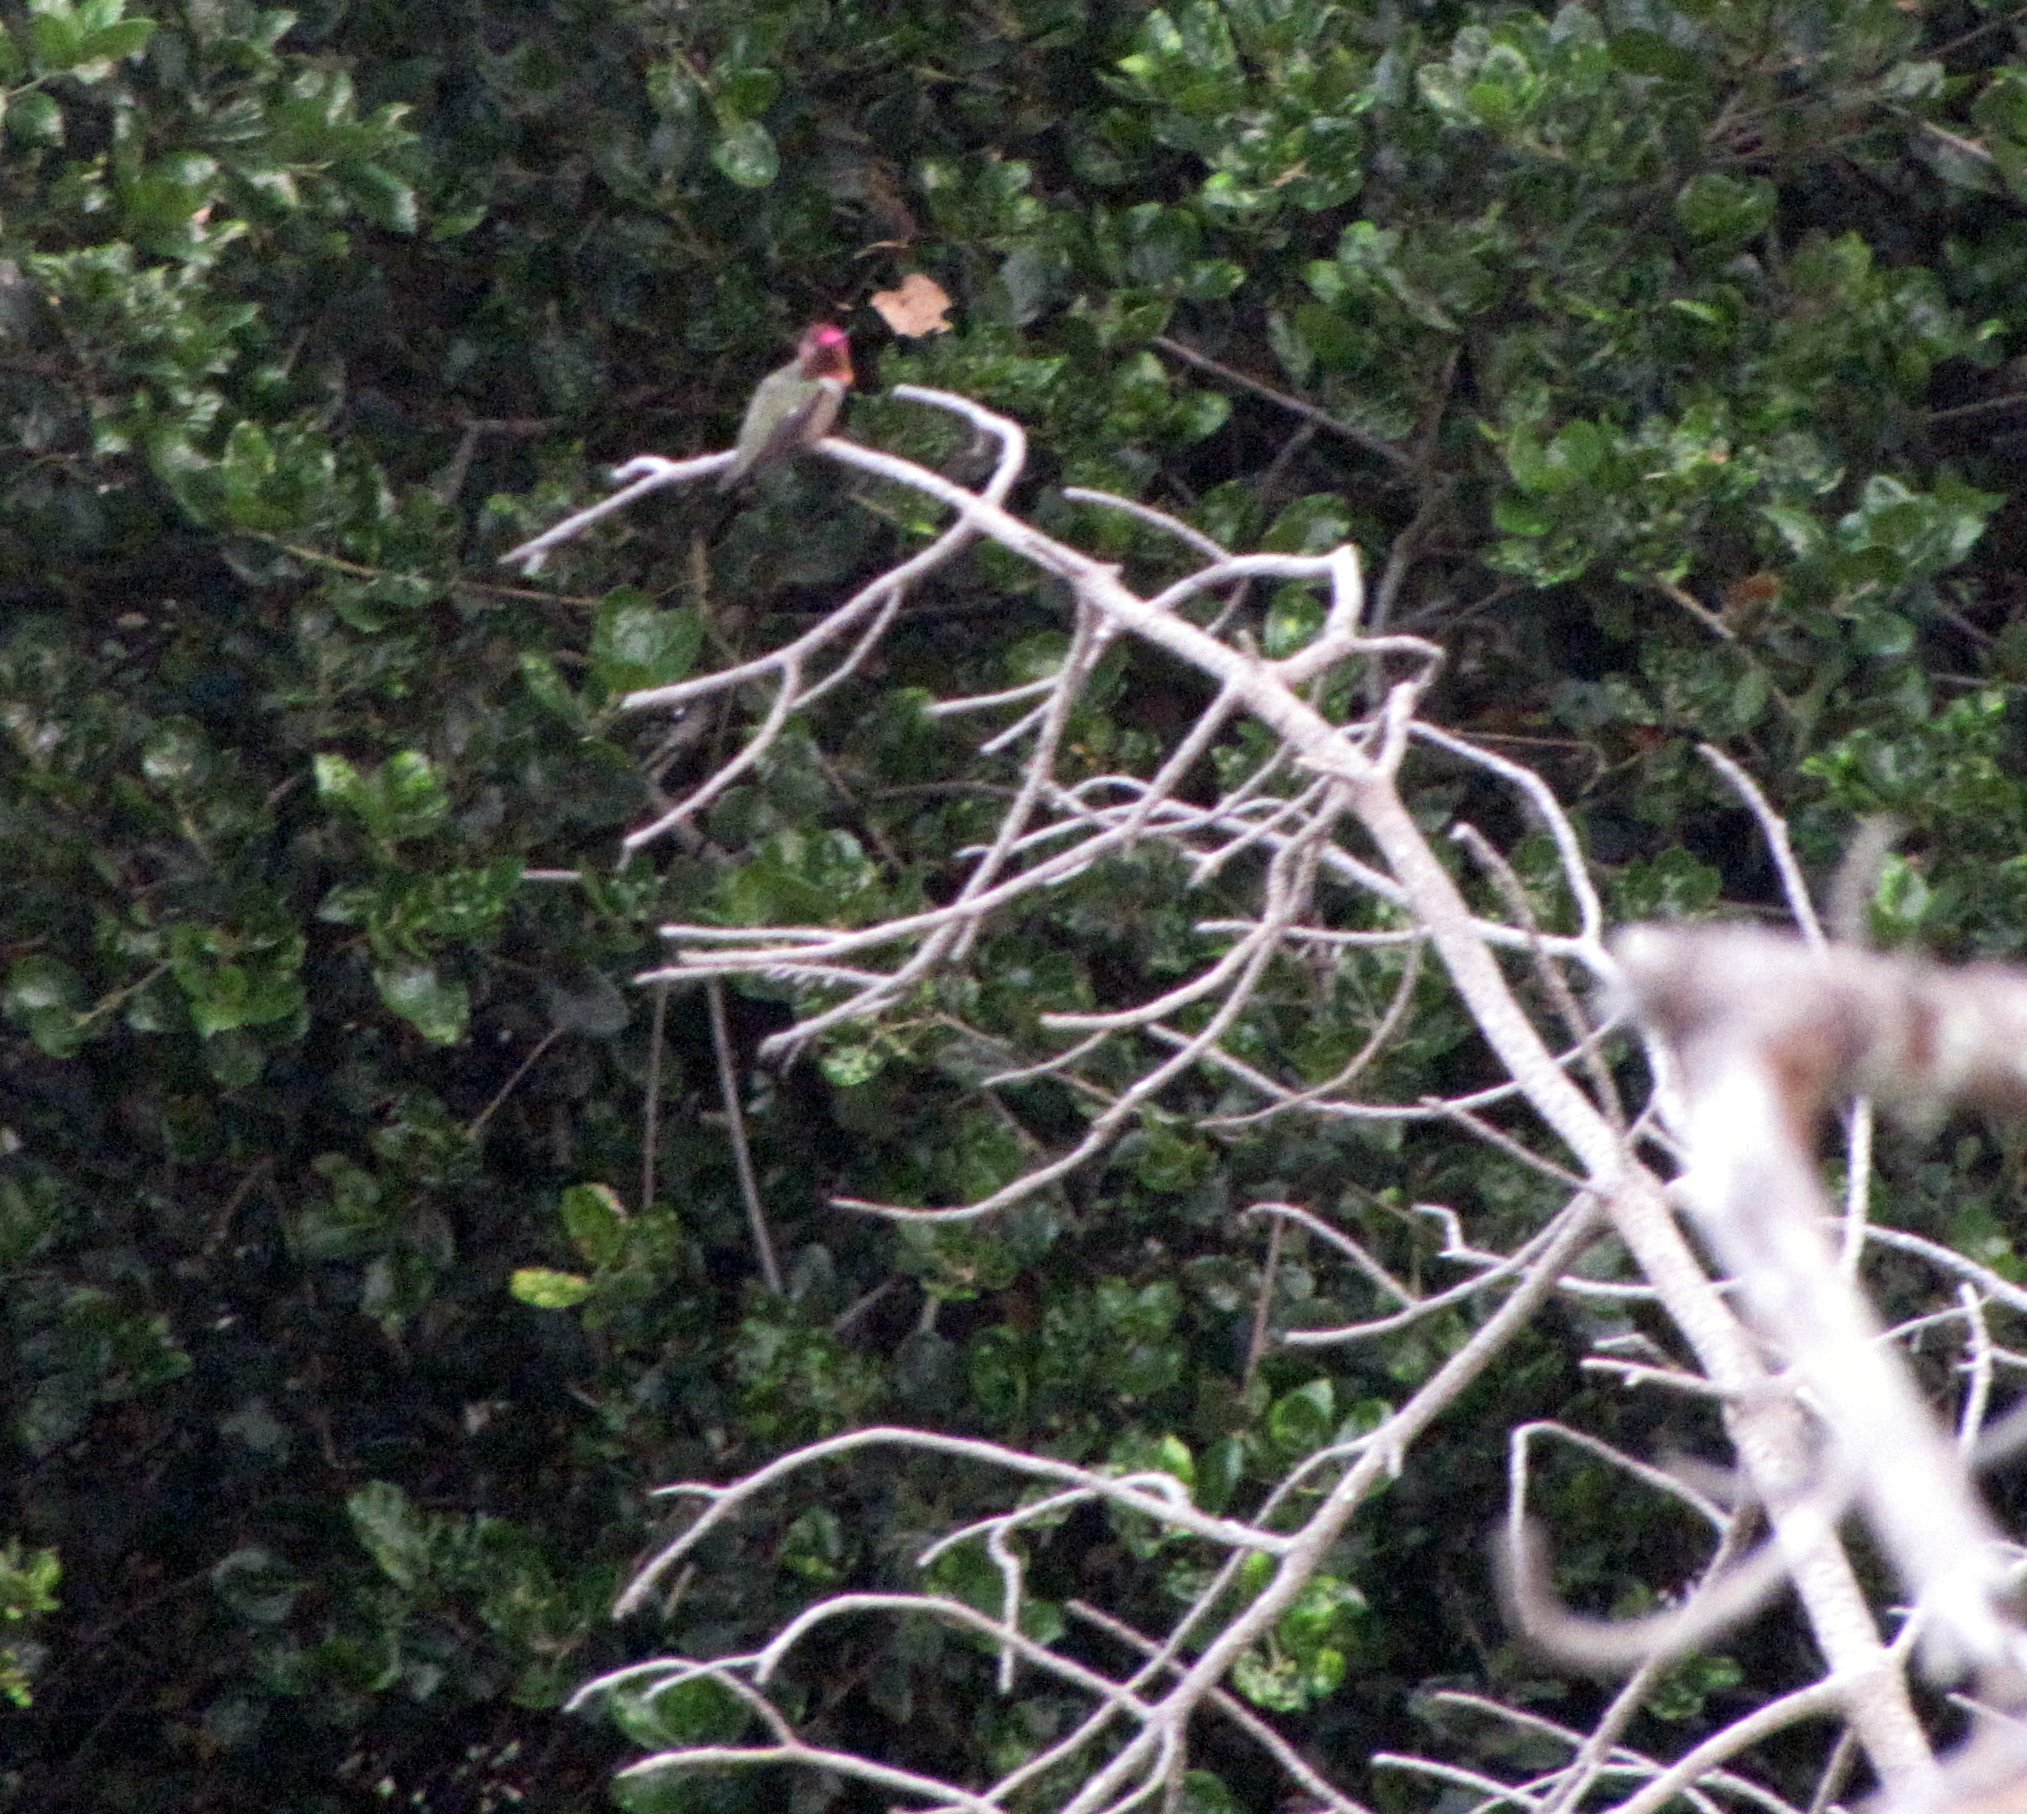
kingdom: Animalia
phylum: Chordata
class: Aves
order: Apodiformes
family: Trochilidae
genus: Calypte
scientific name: Calypte anna
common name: Anna's hummingbird
